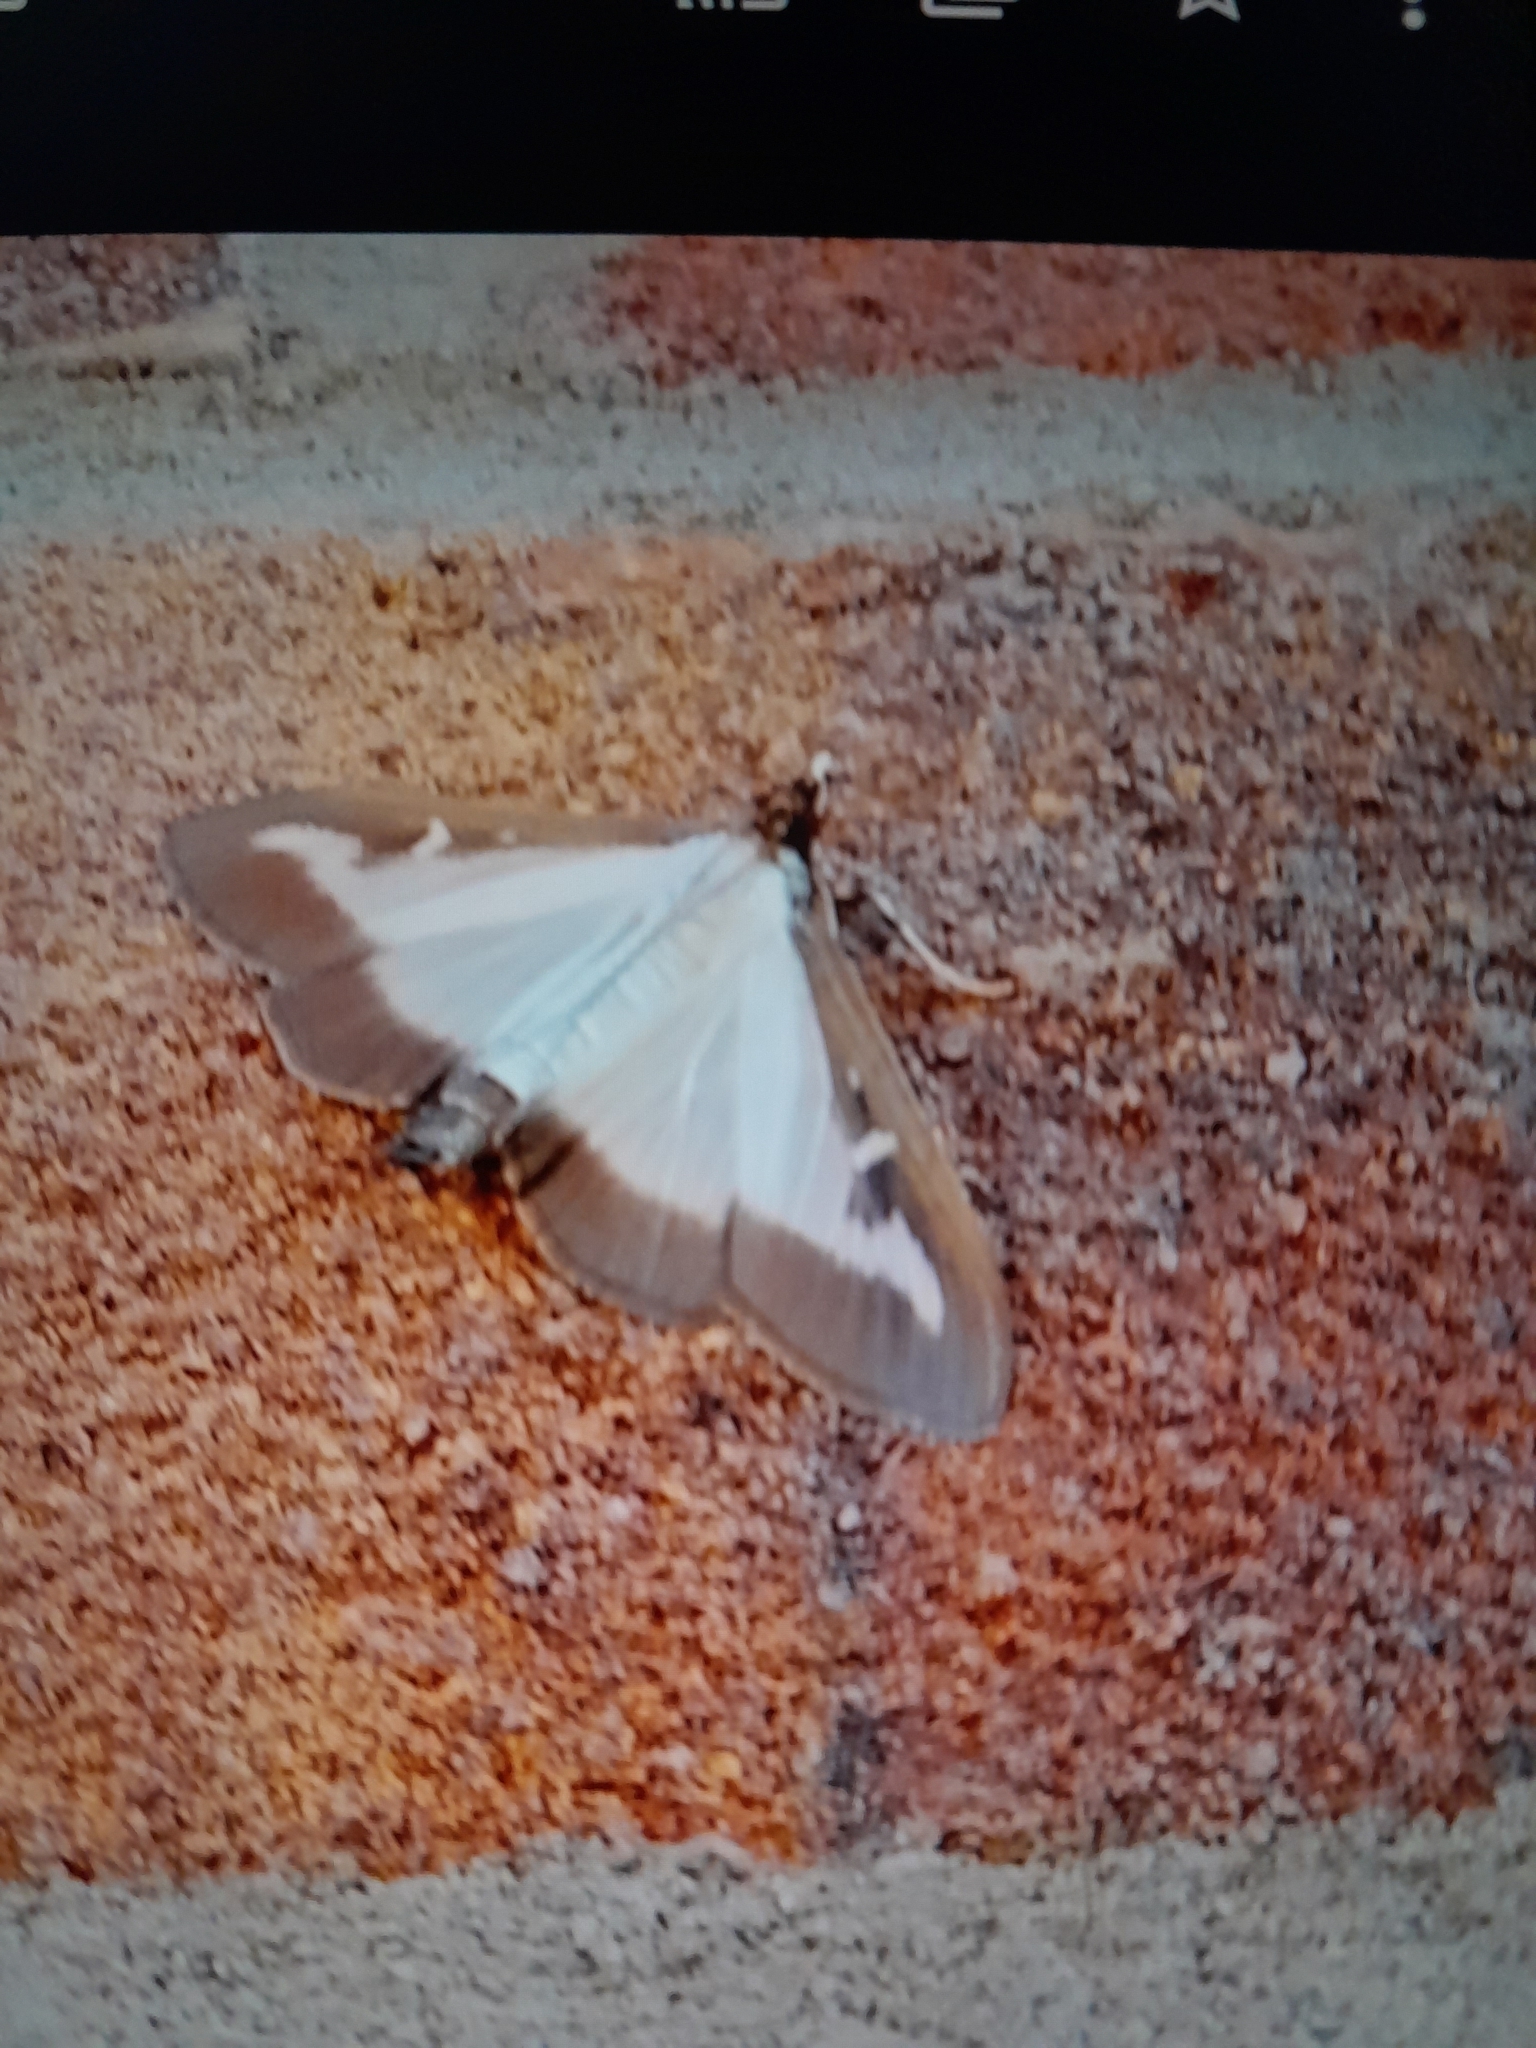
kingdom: Animalia
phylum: Arthropoda
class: Insecta
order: Lepidoptera
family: Crambidae
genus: Cydalima
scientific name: Cydalima perspectalis
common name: Box tree moth
